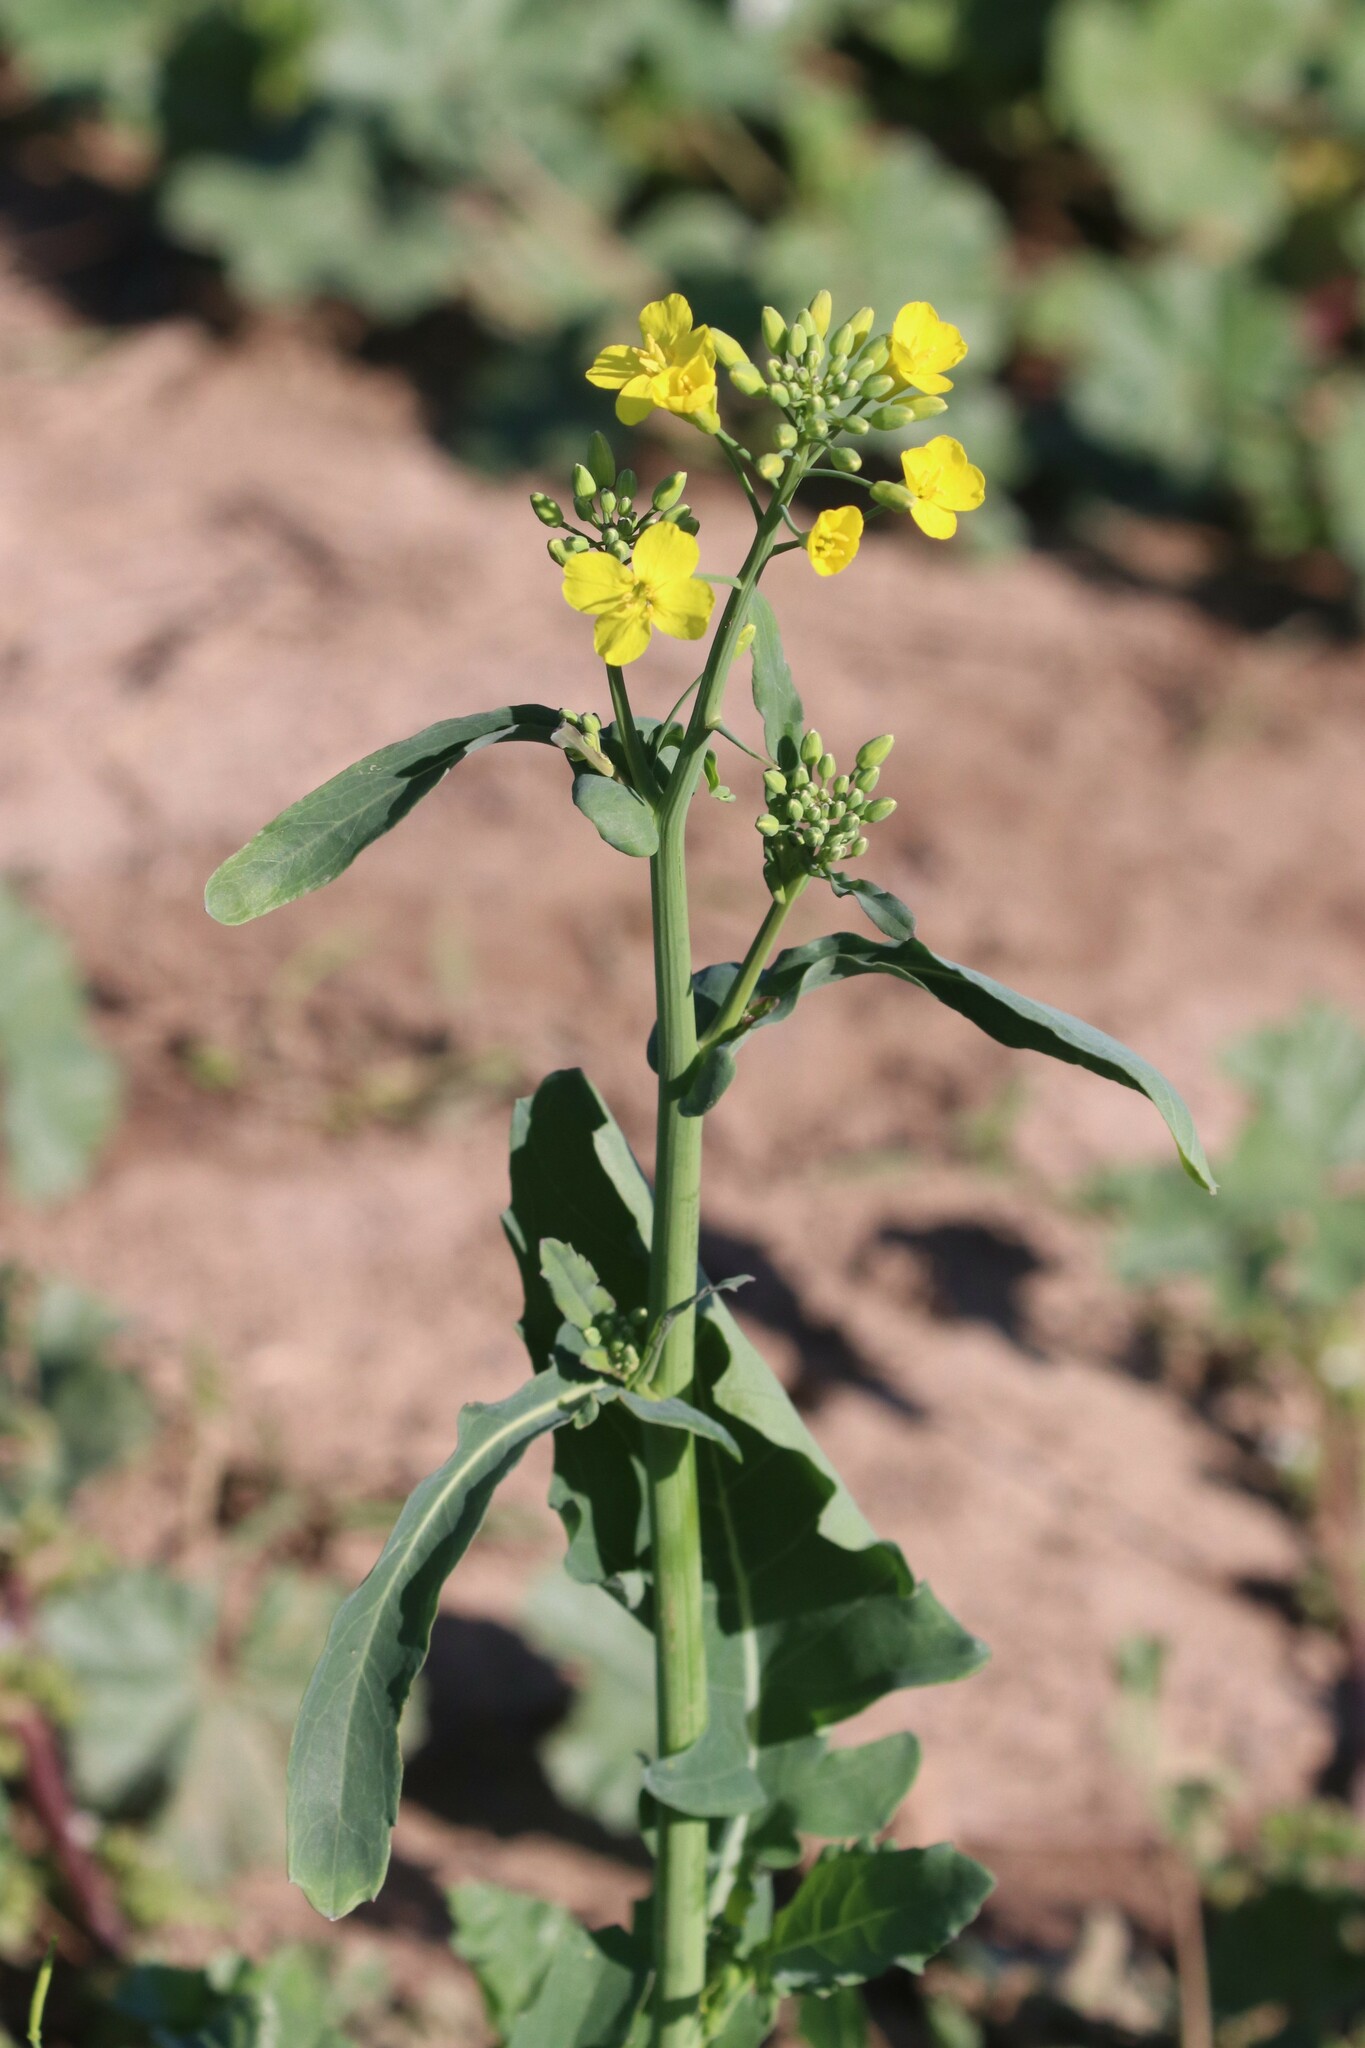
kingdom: Plantae
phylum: Tracheophyta
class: Magnoliopsida
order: Brassicales
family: Brassicaceae
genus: Brassica
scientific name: Brassica napus
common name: Rape
